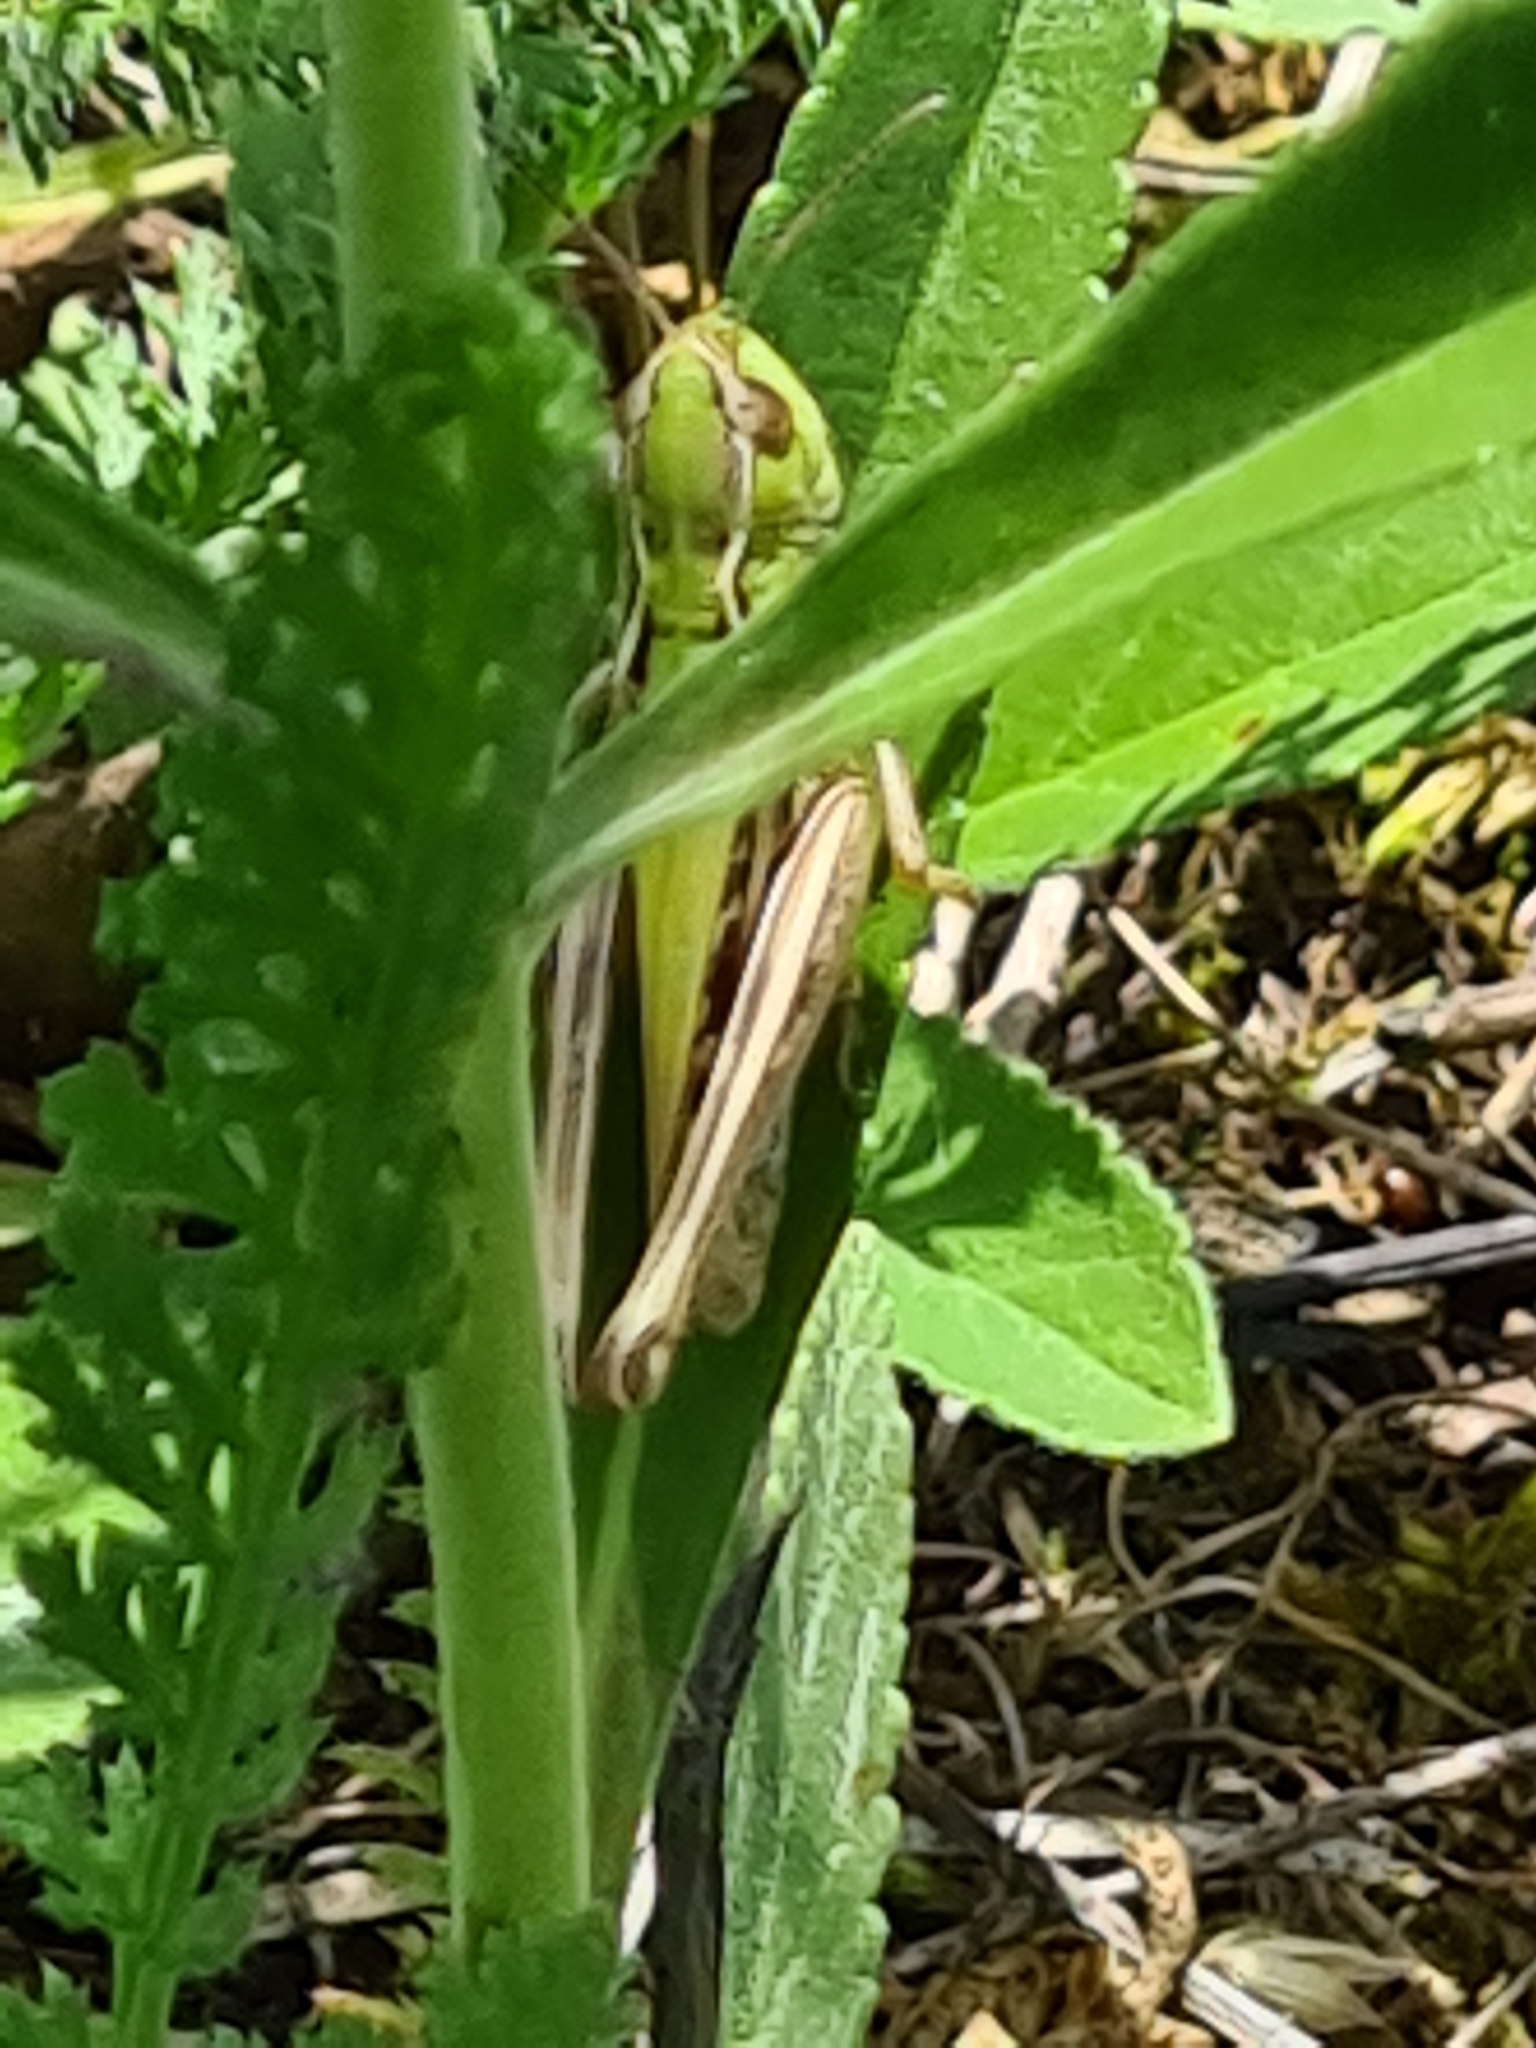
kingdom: Animalia
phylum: Arthropoda
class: Insecta
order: Orthoptera
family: Acrididae
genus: Stenobothrus
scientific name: Stenobothrus nigromaculatus
